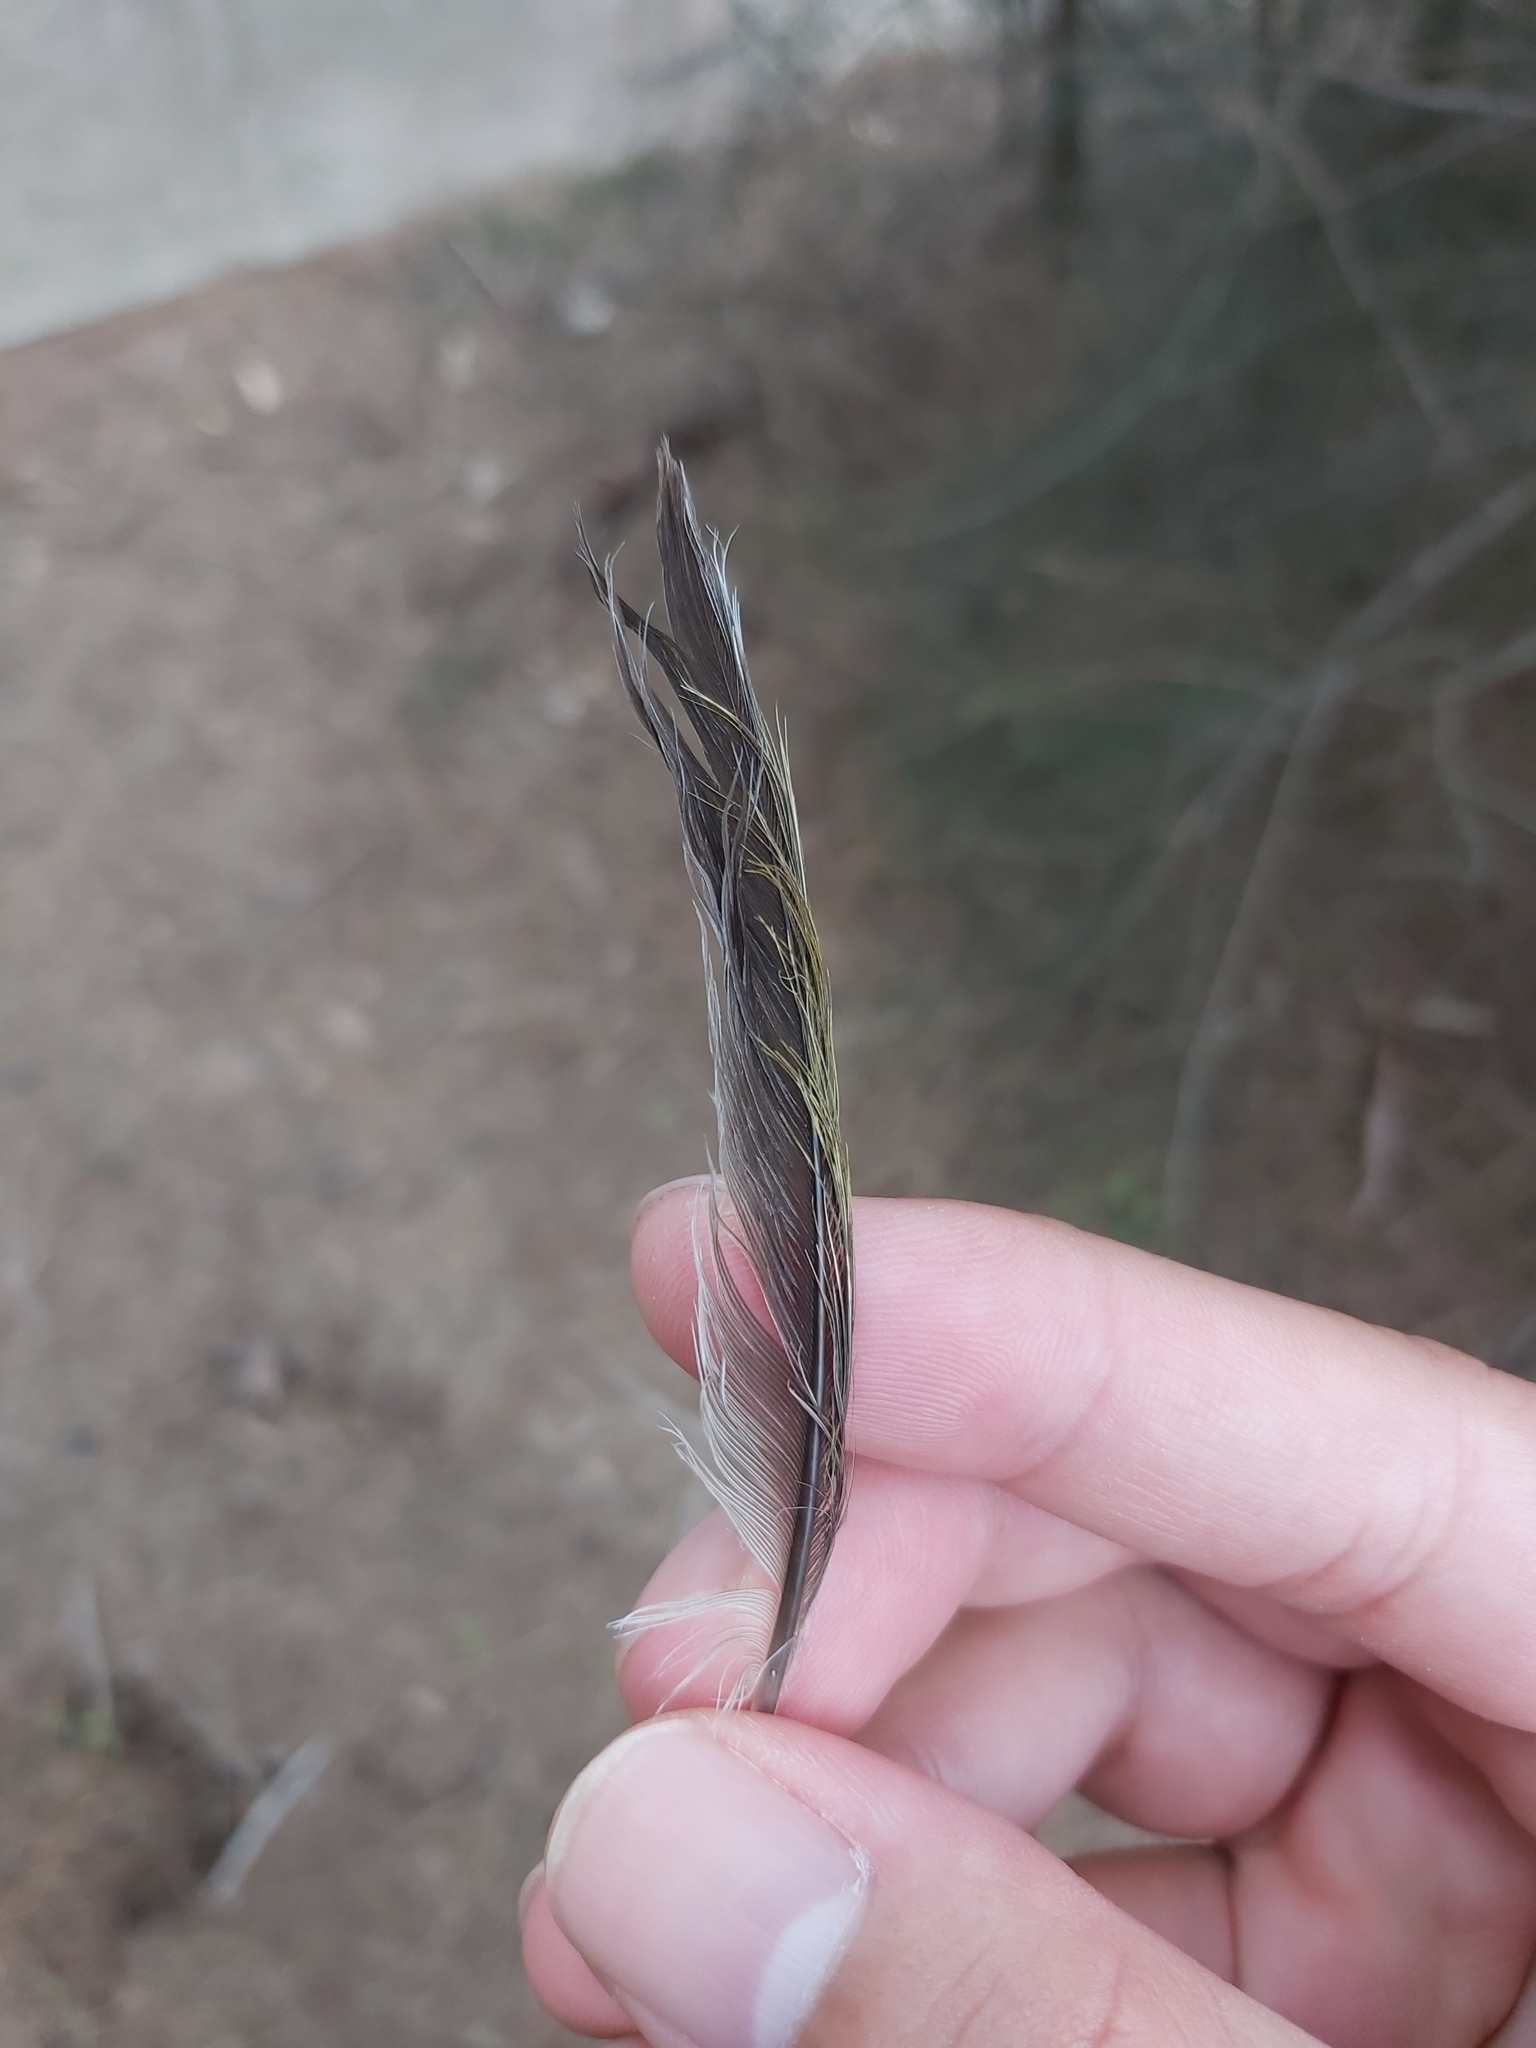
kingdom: Animalia
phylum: Chordata
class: Aves
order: Passeriformes
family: Meliphagidae
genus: Manorina
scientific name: Manorina melanocephala
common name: Noisy miner
